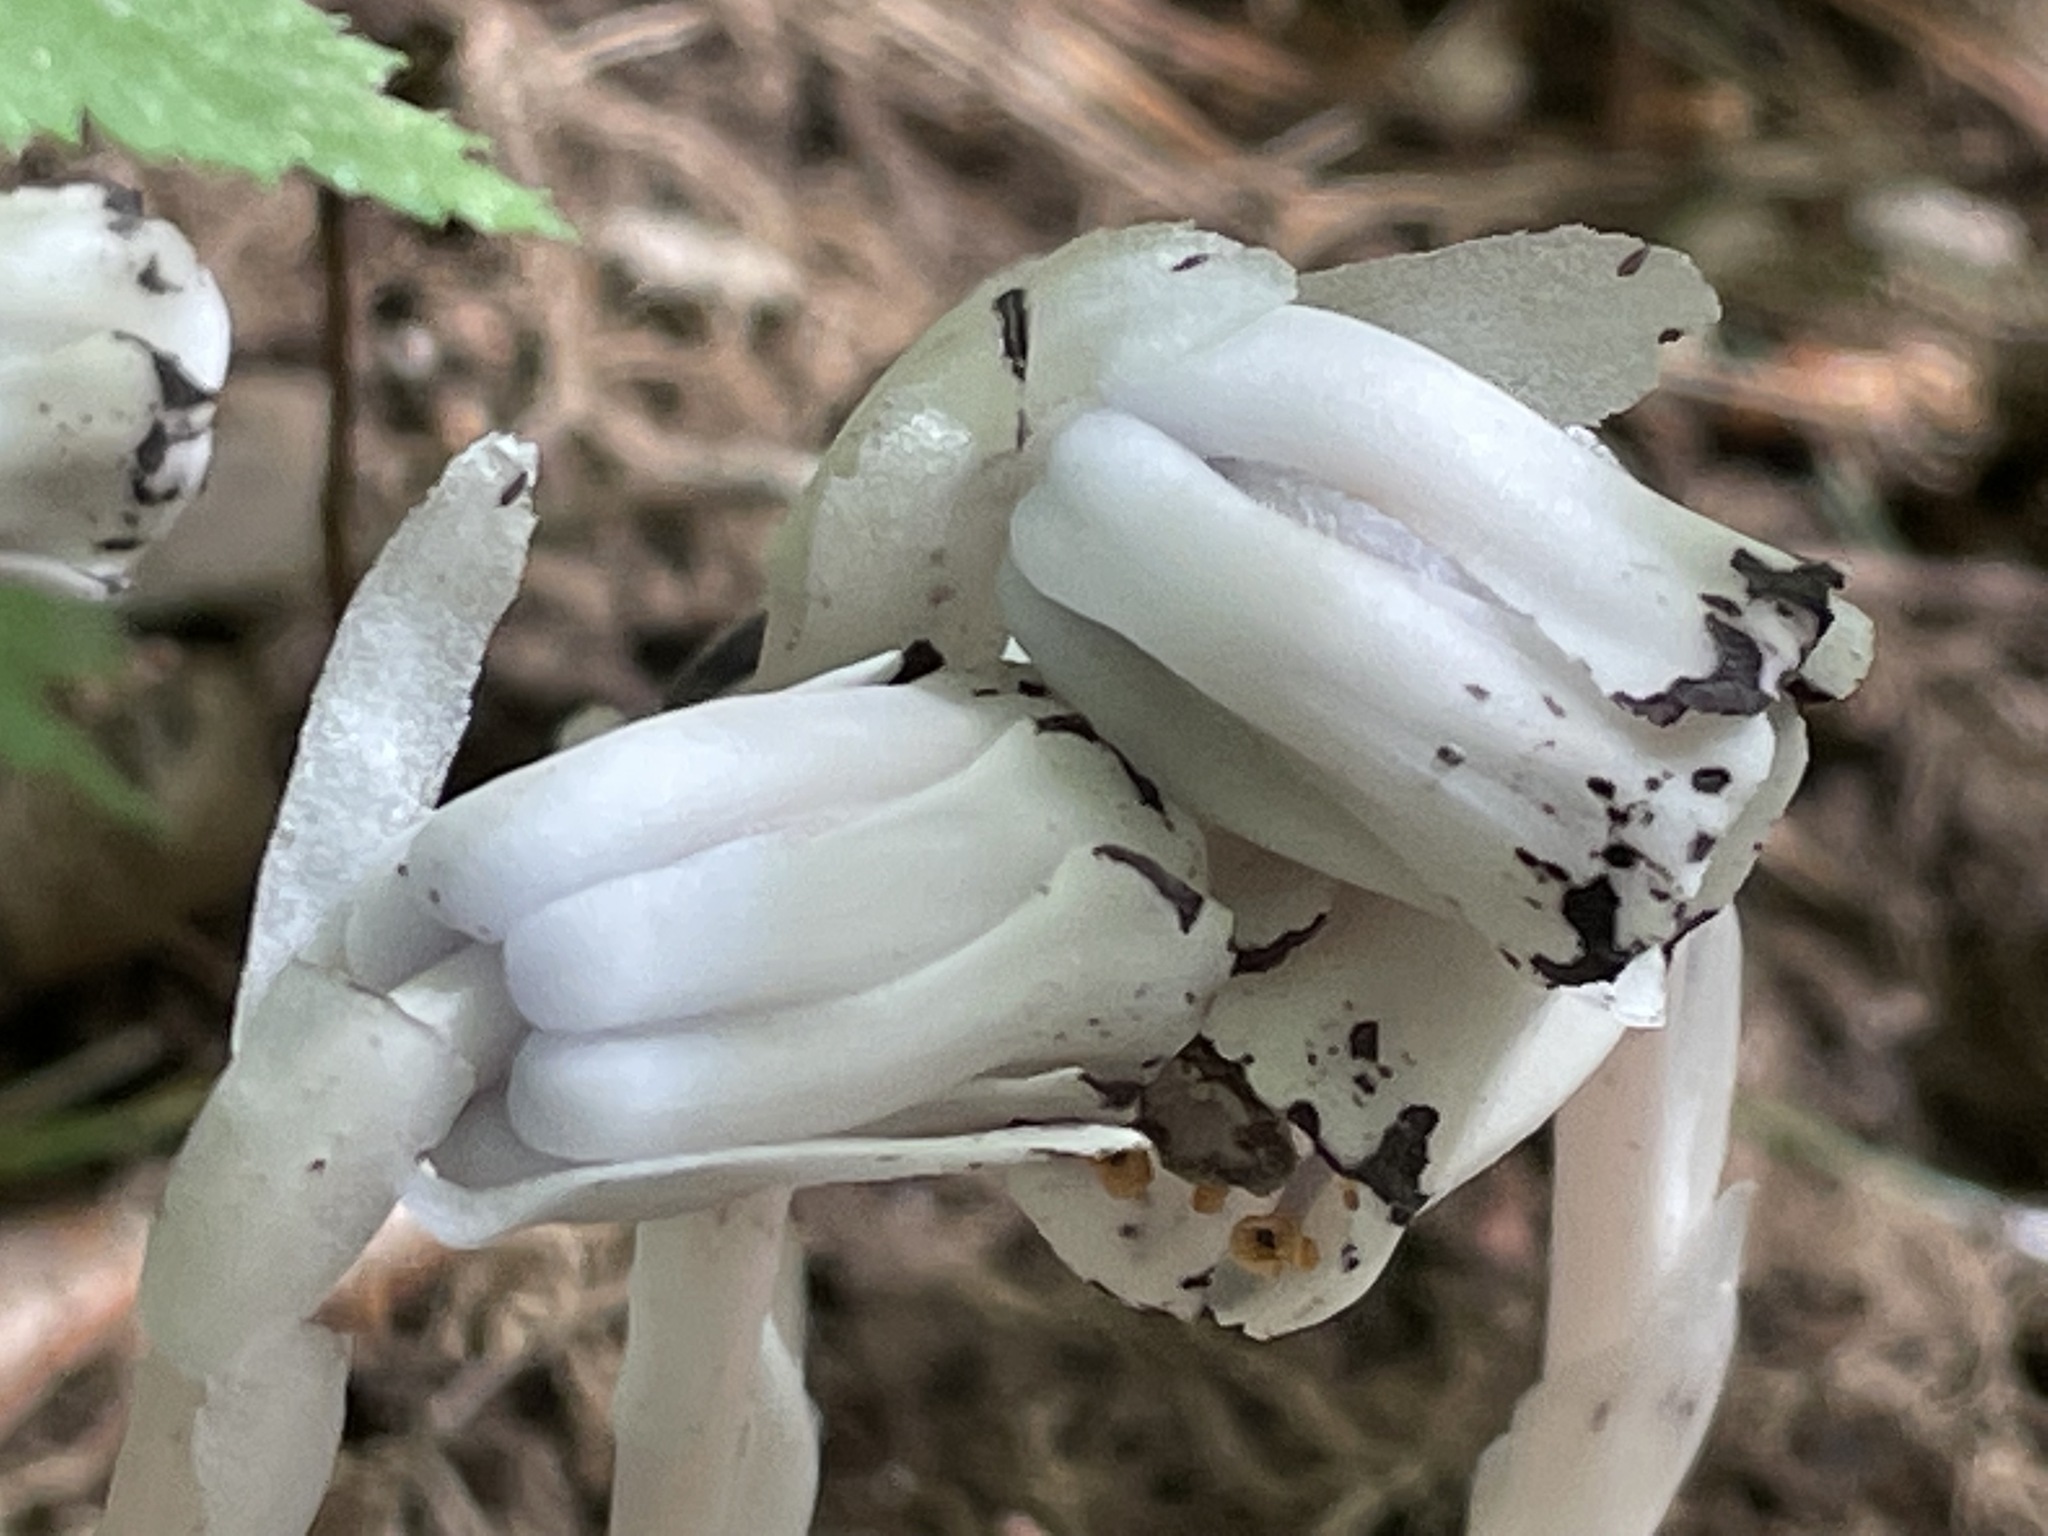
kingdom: Plantae
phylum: Tracheophyta
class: Magnoliopsida
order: Ericales
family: Ericaceae
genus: Monotropa
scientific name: Monotropa uniflora
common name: Convulsion root
